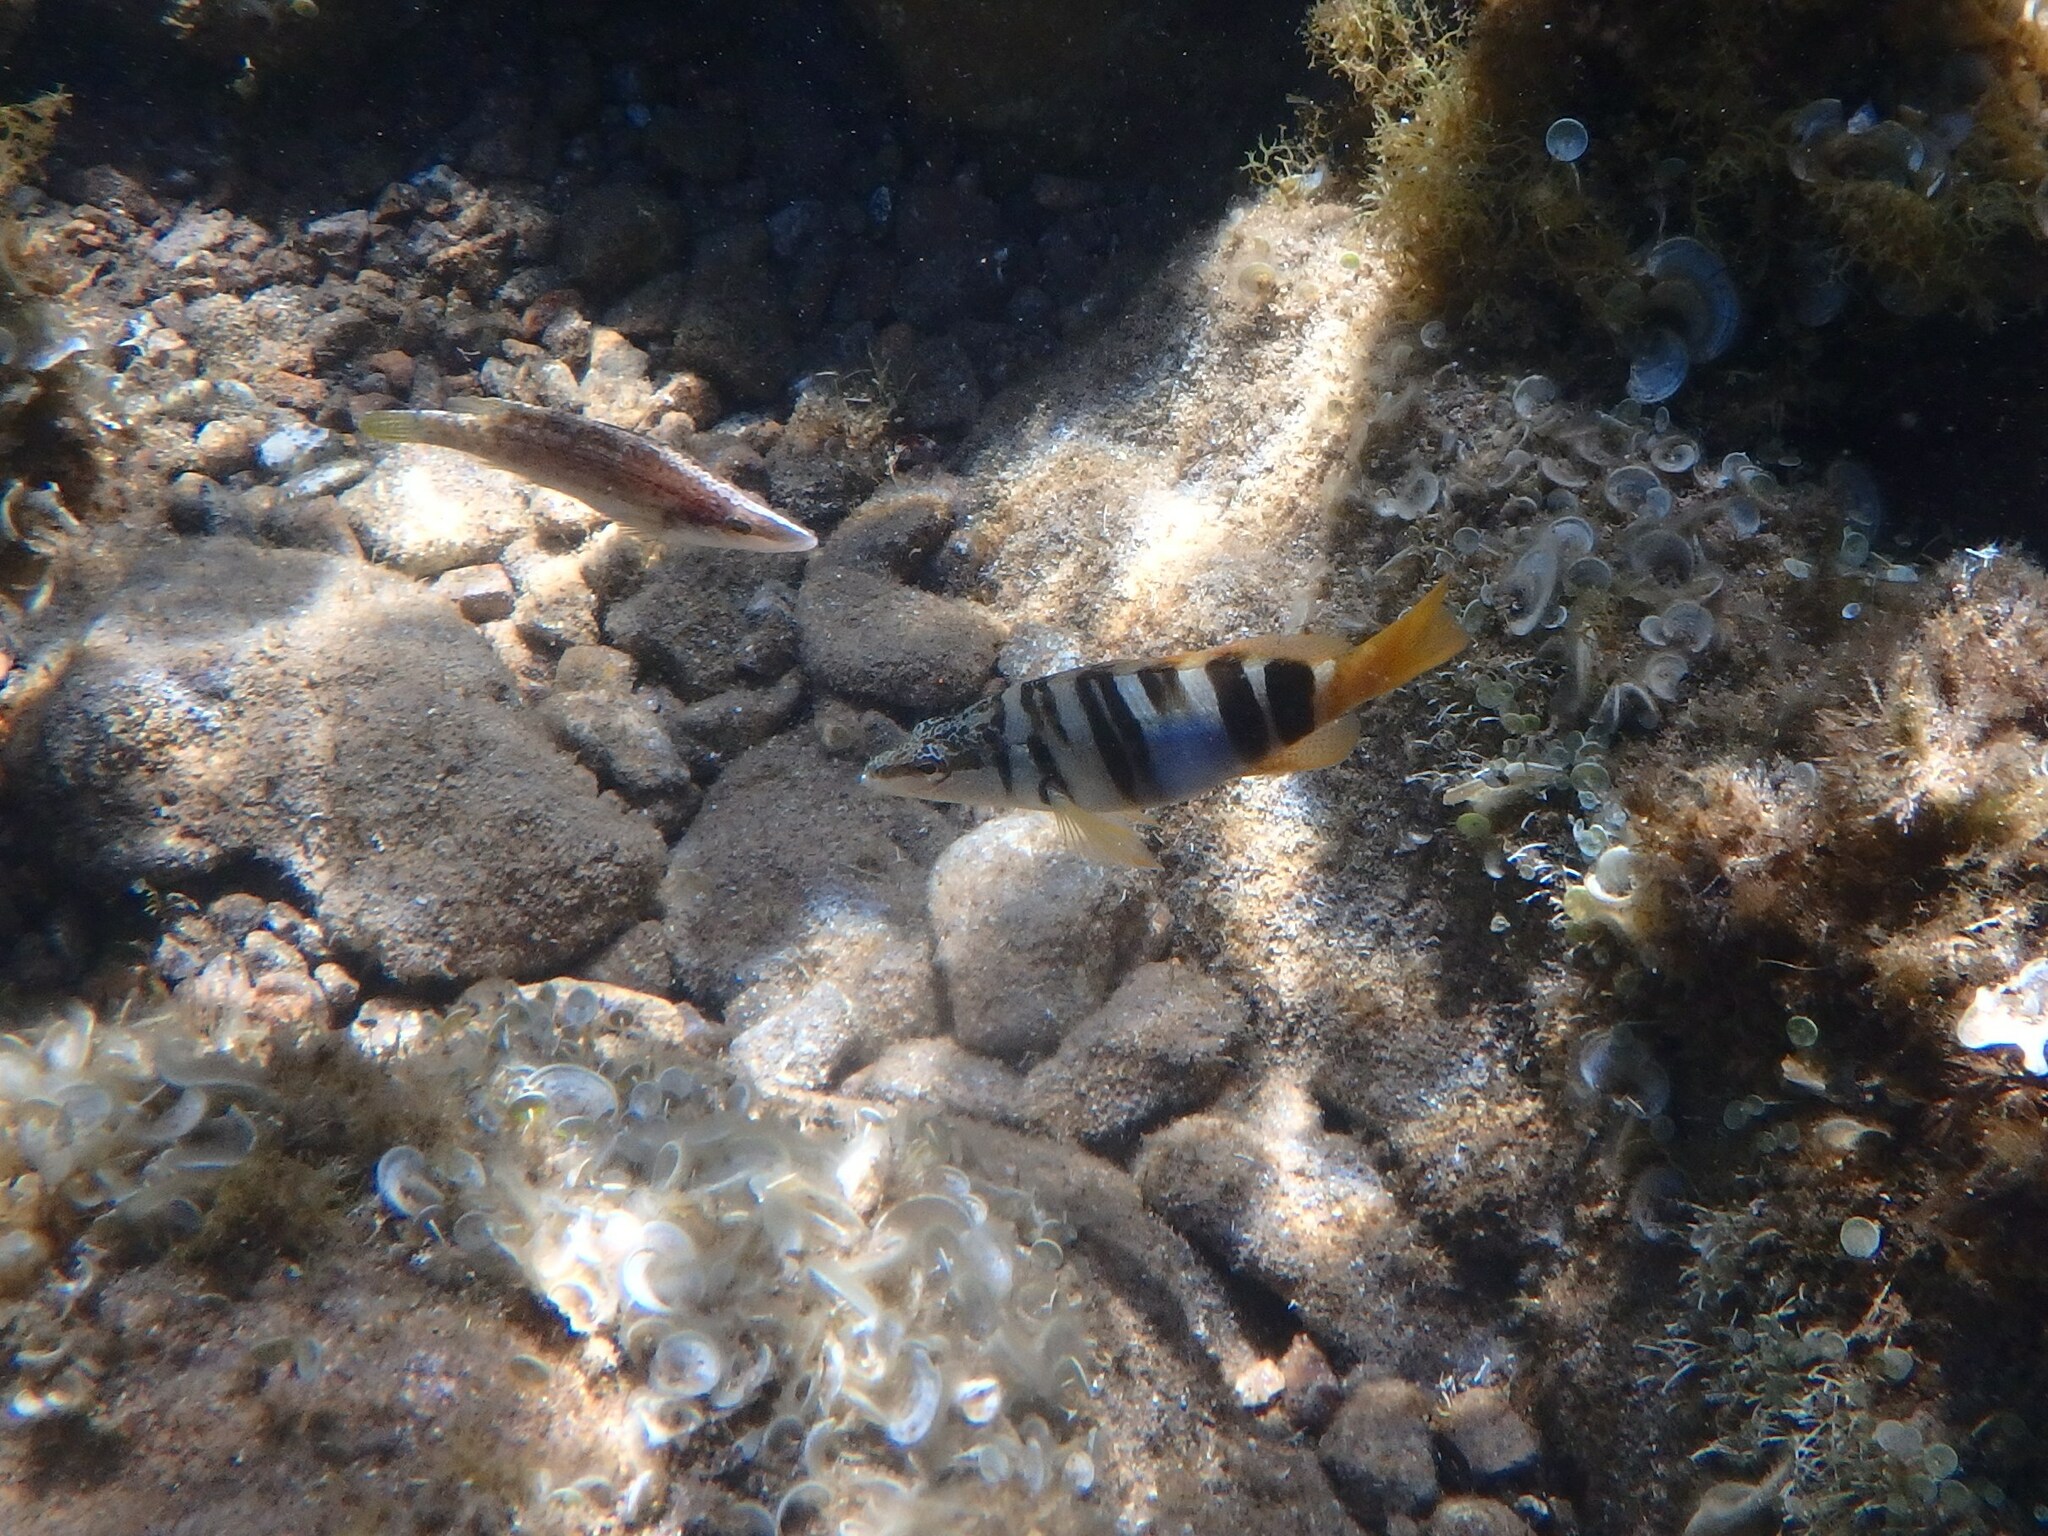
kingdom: Animalia
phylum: Chordata
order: Perciformes
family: Serranidae
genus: Serranus
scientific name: Serranus scriba
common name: Painted comber
